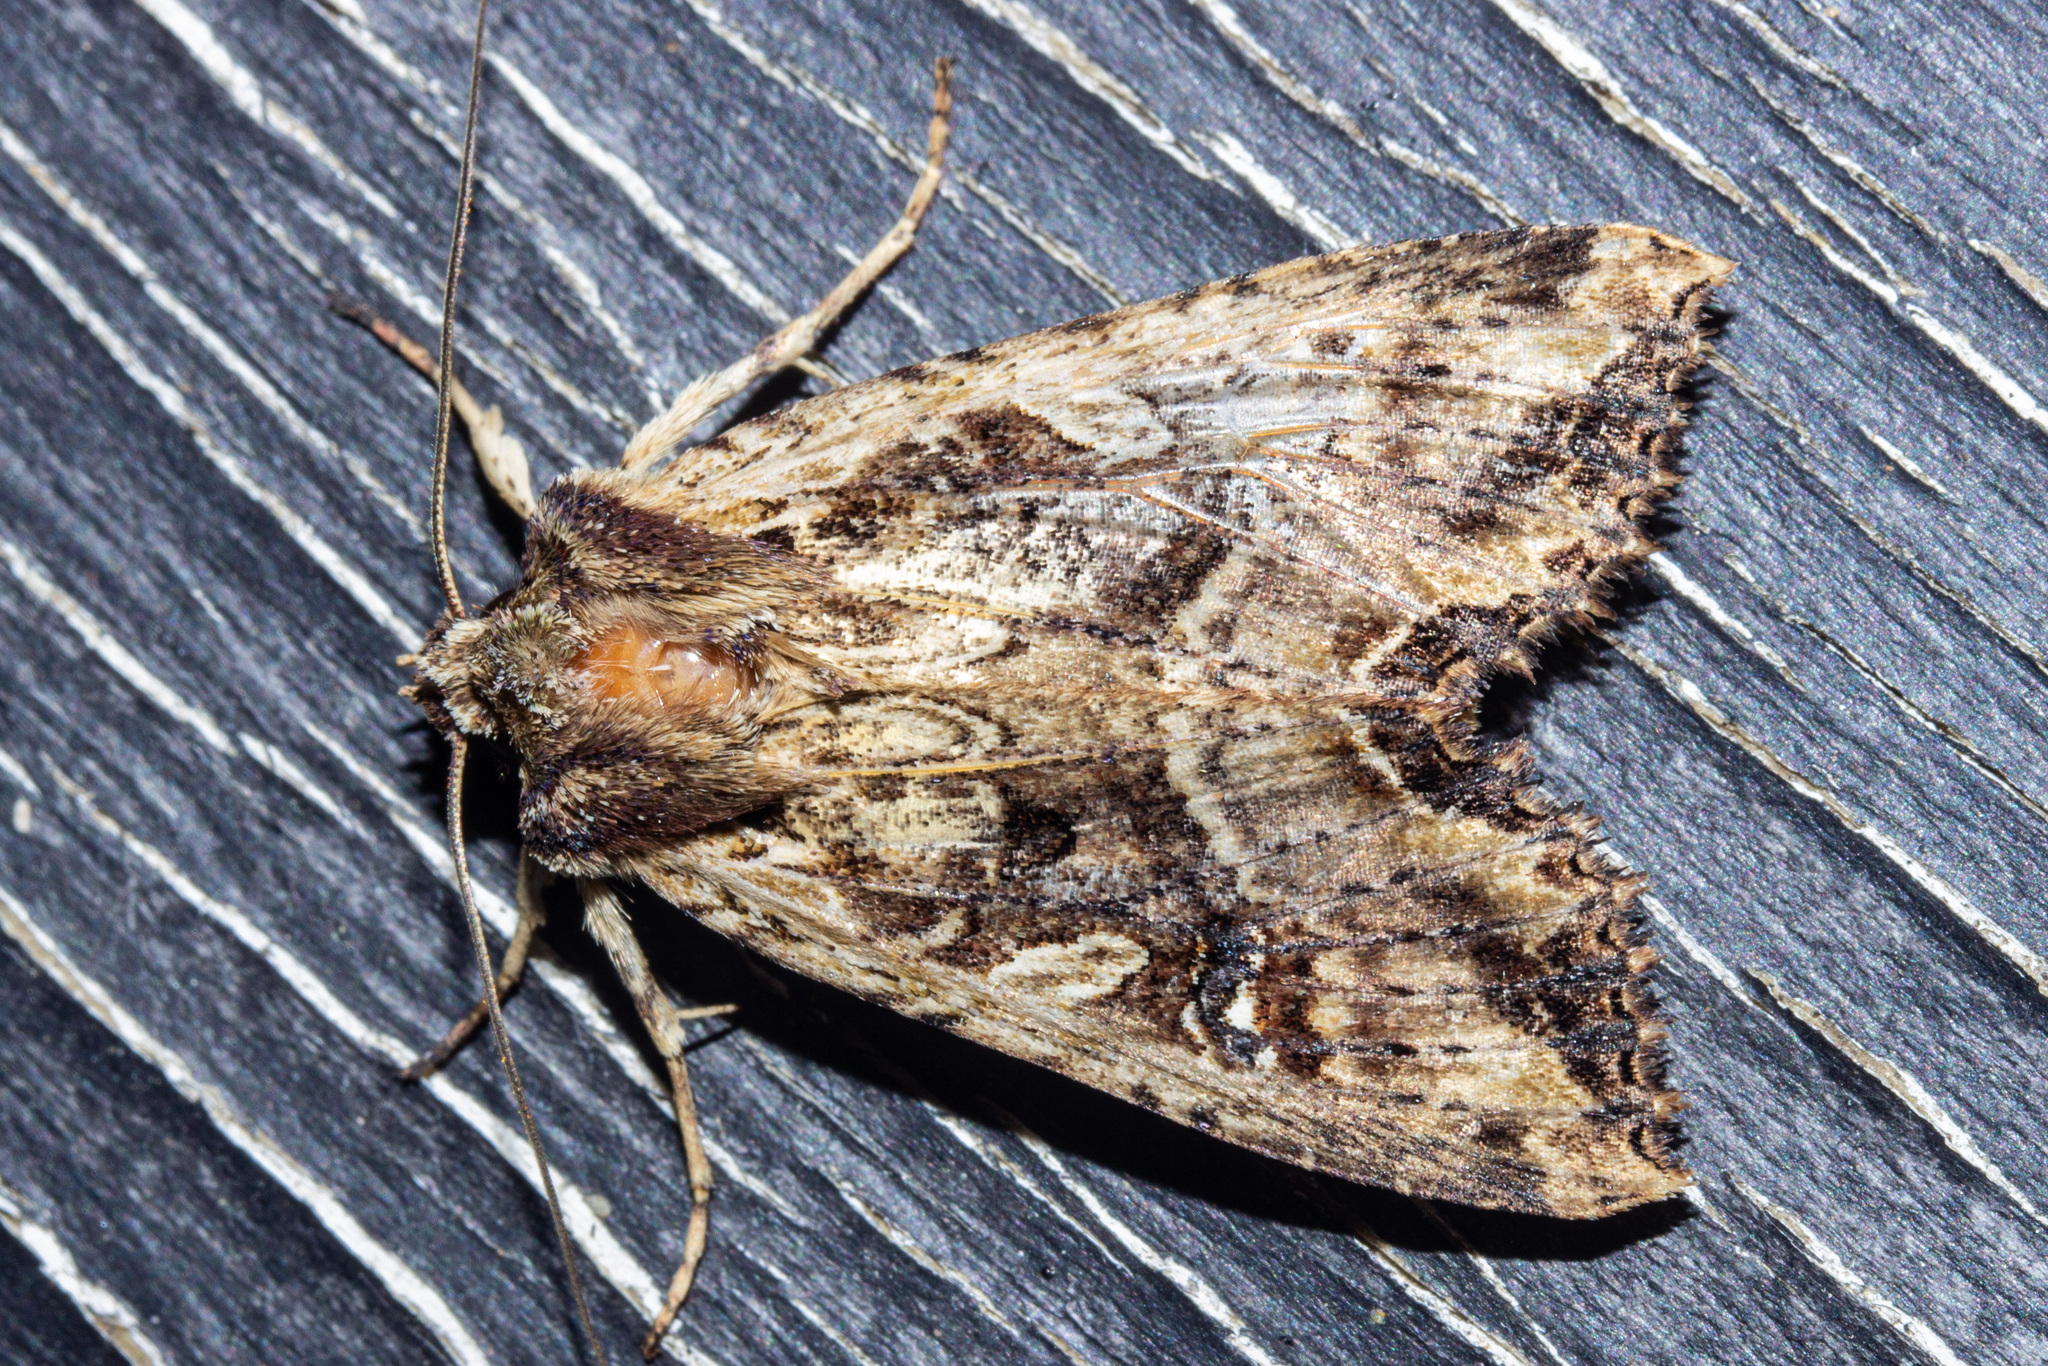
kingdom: Animalia
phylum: Arthropoda
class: Insecta
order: Lepidoptera
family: Noctuidae
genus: Meterana
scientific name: Meterana stipata
